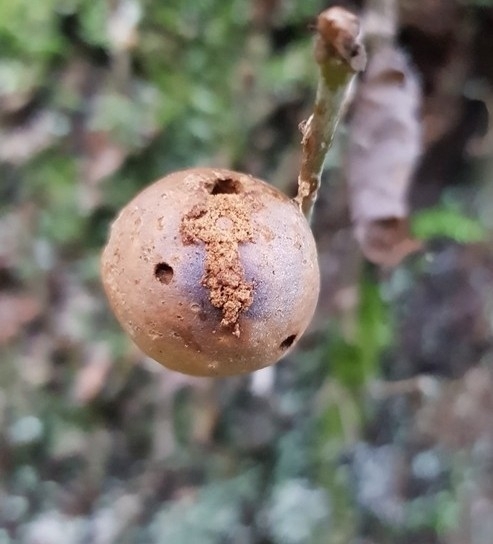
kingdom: Animalia
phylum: Arthropoda
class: Insecta
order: Hymenoptera
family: Cynipidae
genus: Andricus
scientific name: Andricus kollari
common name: Marble gall
